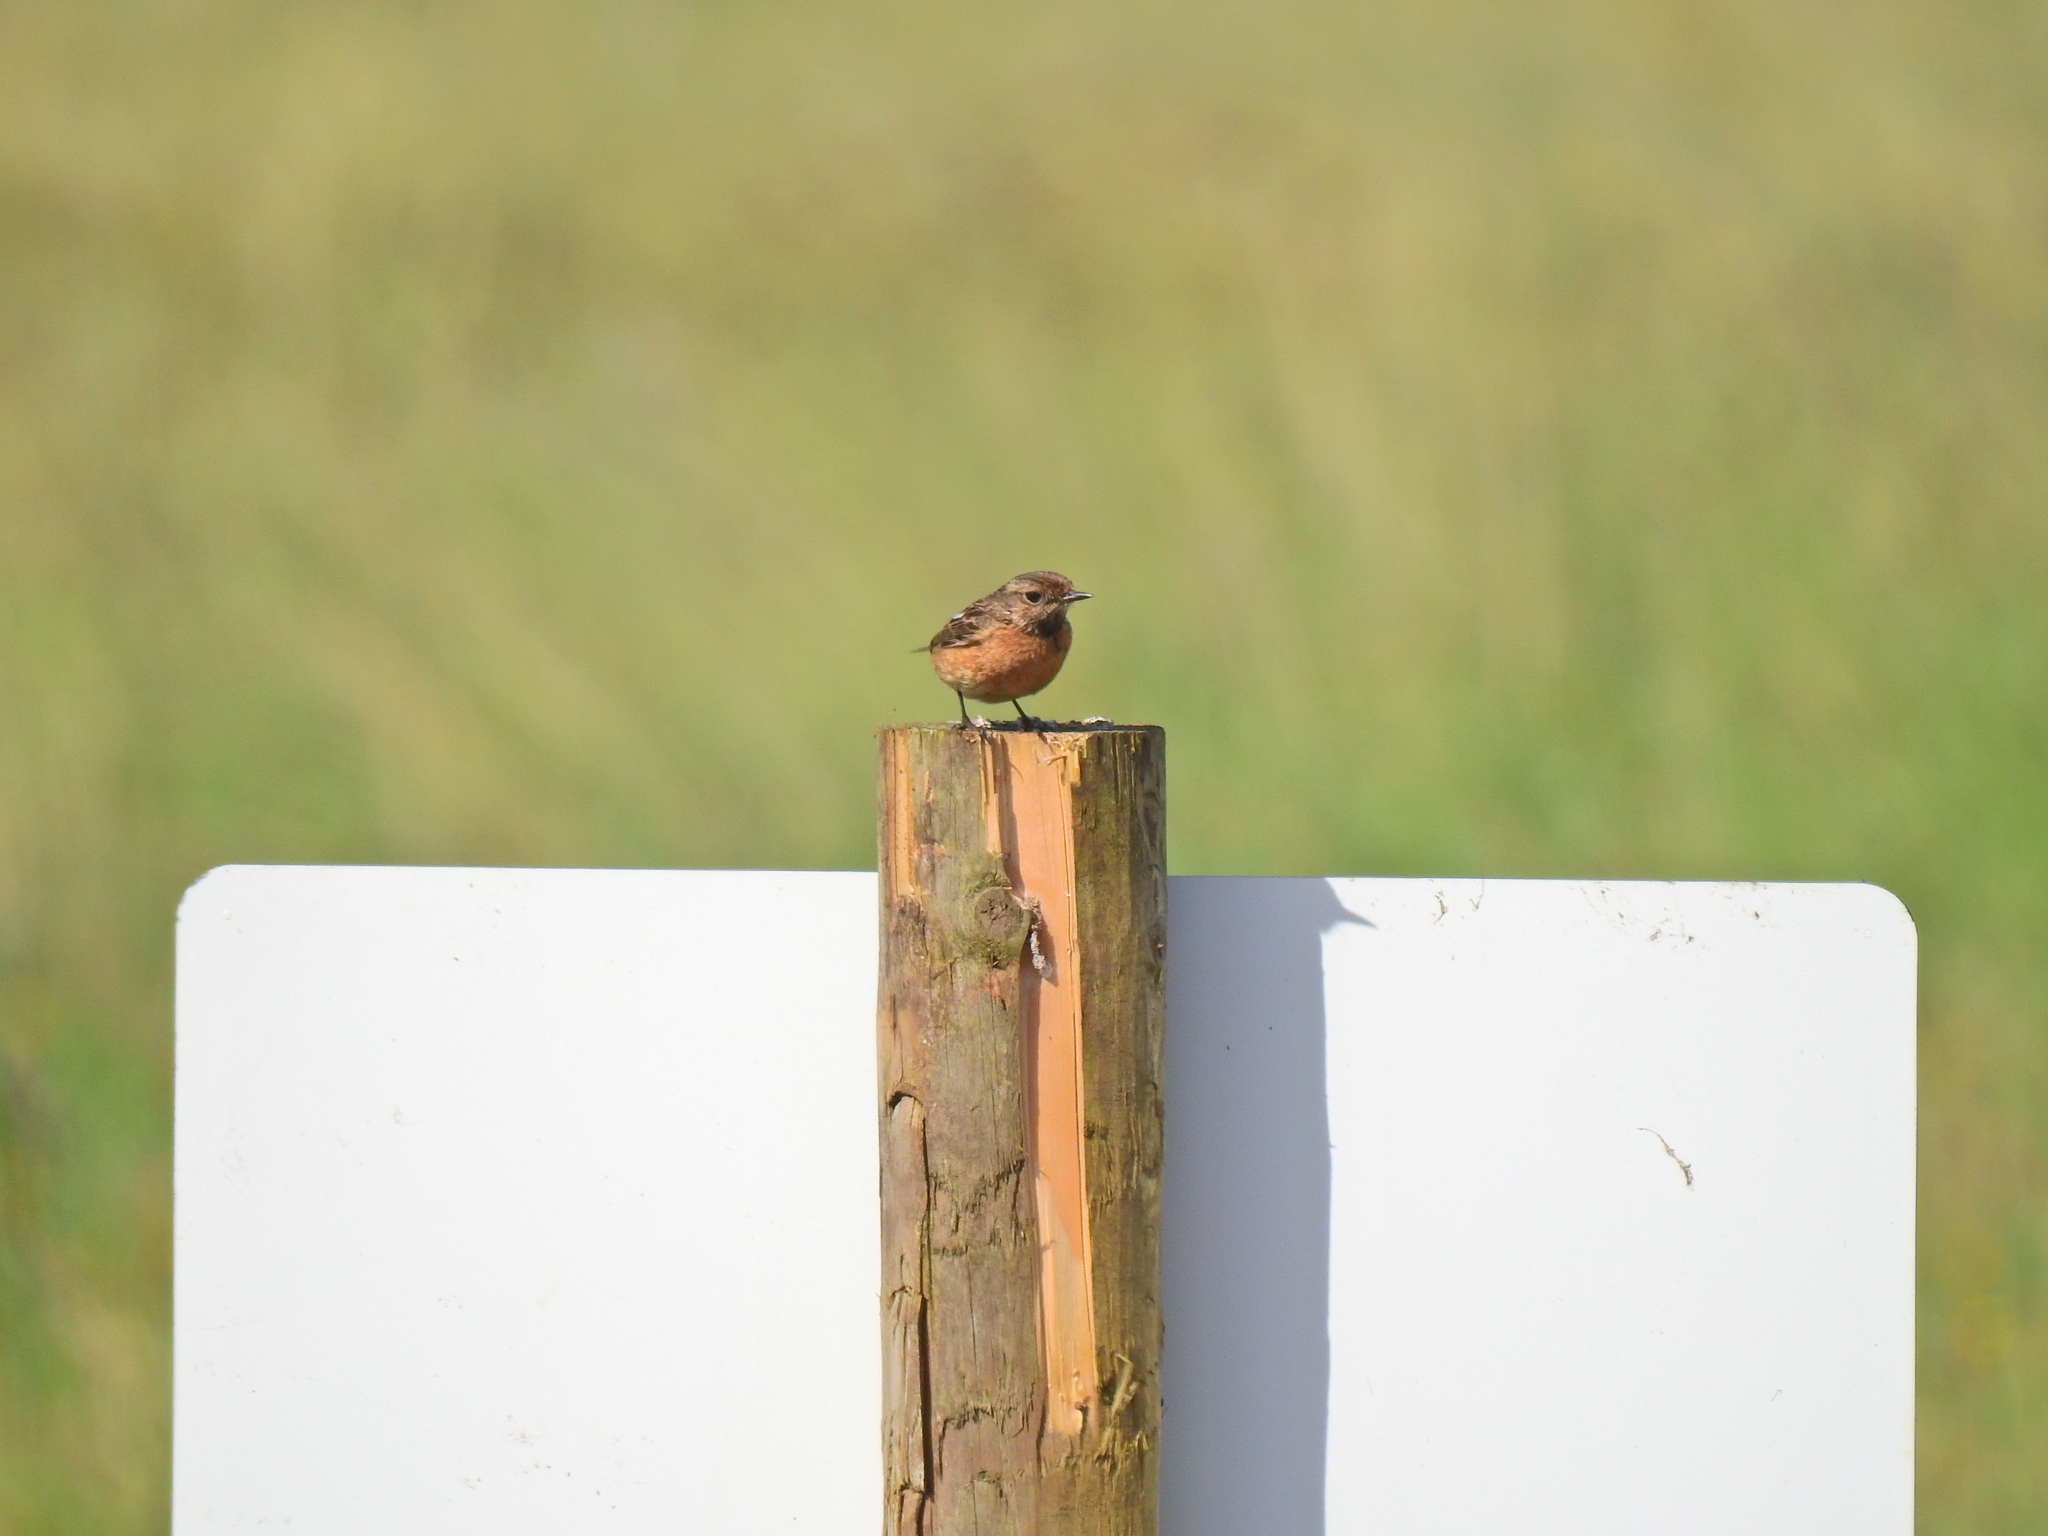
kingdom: Animalia
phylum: Chordata
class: Aves
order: Passeriformes
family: Muscicapidae
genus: Saxicola
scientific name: Saxicola rubicola
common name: European stonechat
